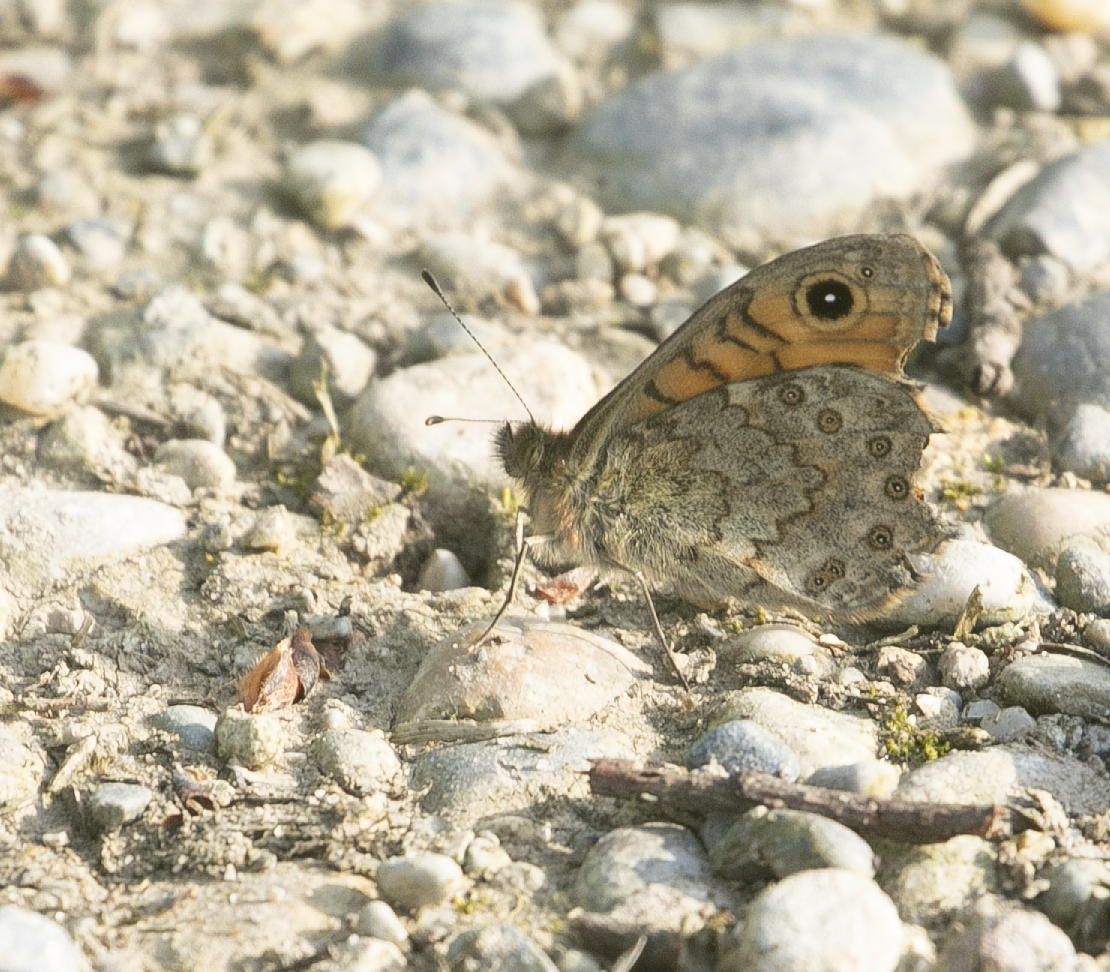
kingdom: Animalia
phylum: Arthropoda
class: Insecta
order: Lepidoptera
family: Nymphalidae
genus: Pararge
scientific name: Pararge Lasiommata megera
